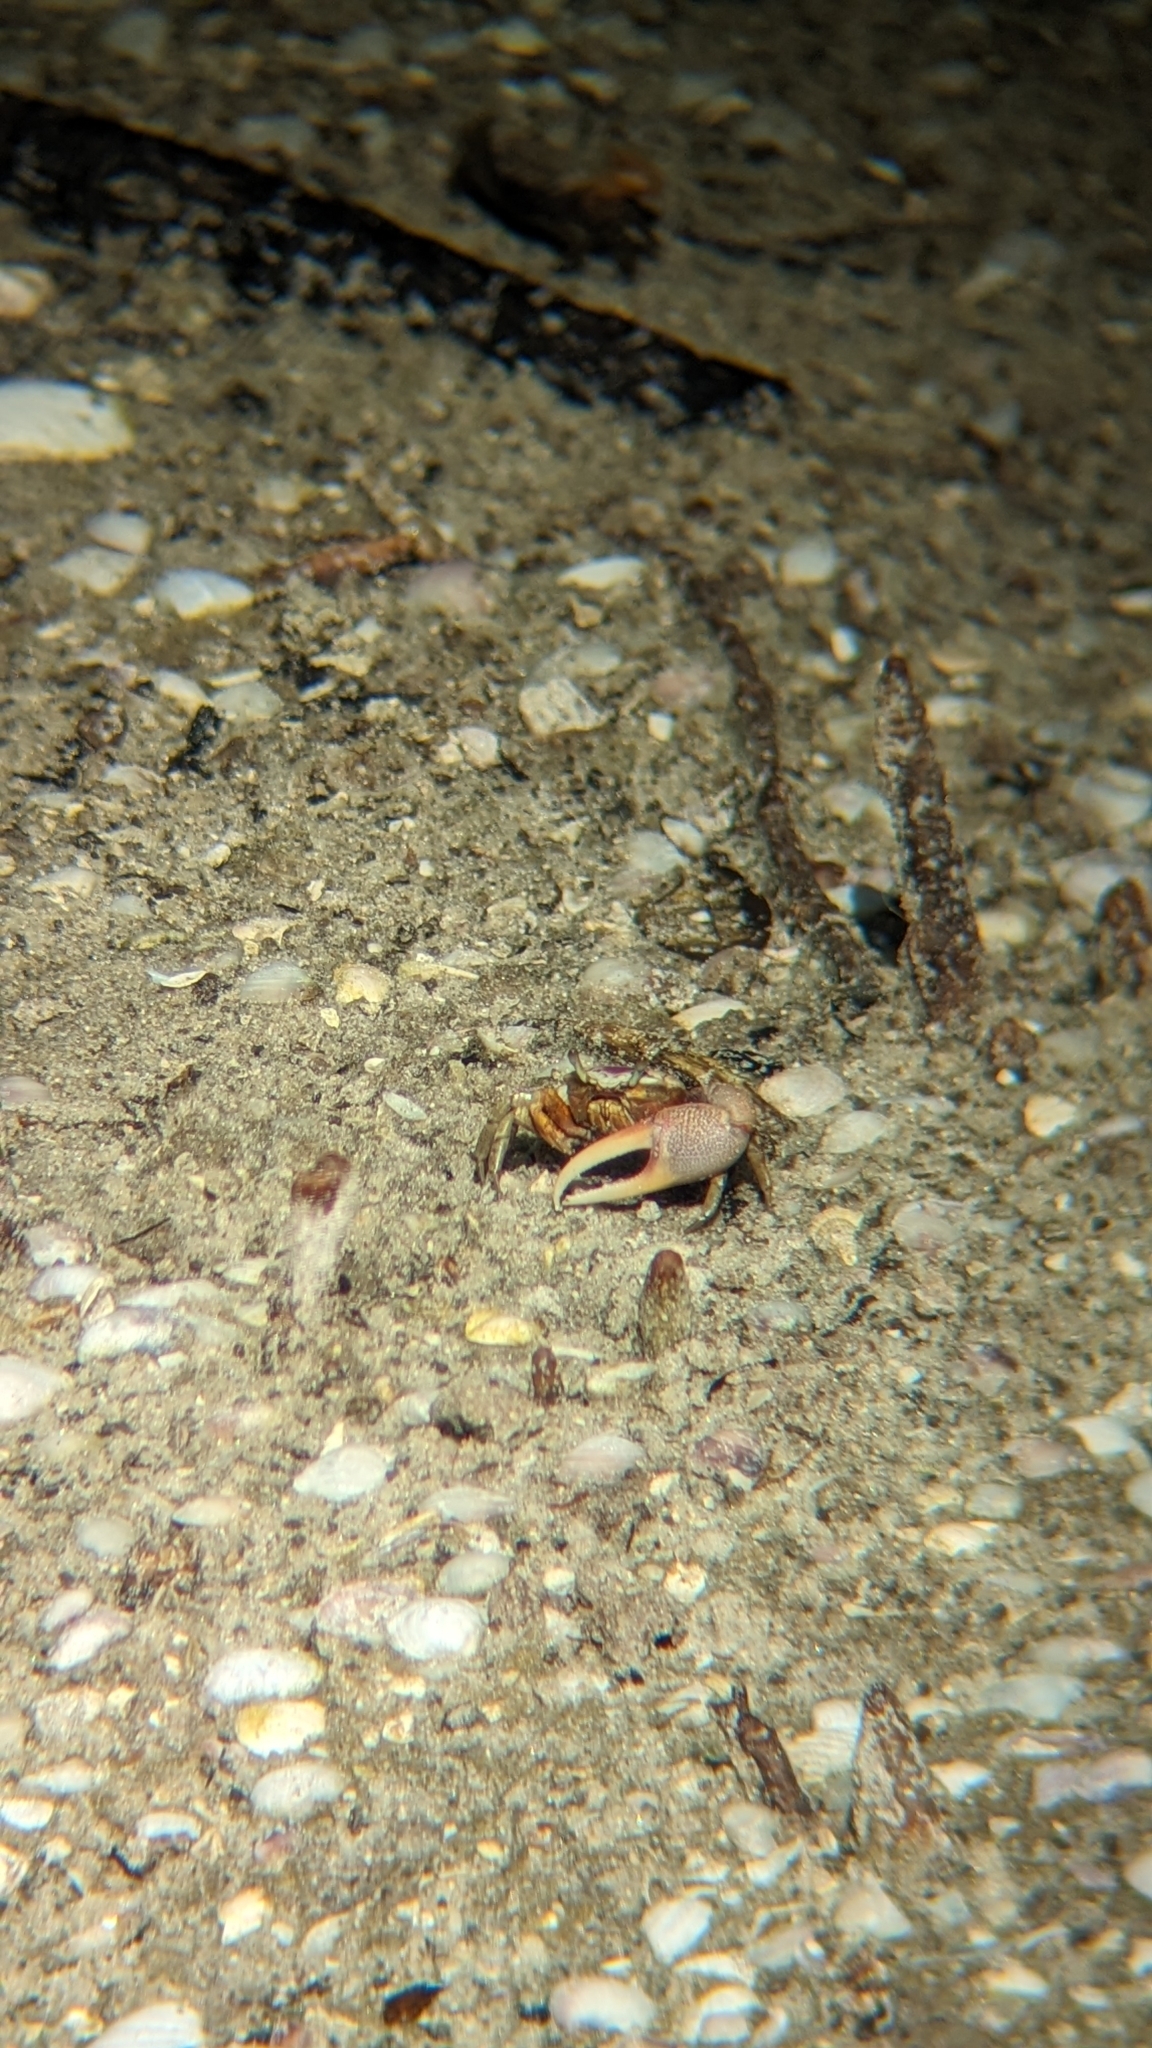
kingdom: Animalia
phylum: Arthropoda
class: Malacostraca
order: Decapoda
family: Ocypodidae
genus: Leptuca
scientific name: Leptuca pugilator
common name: Atlantic sand fiddler crab
